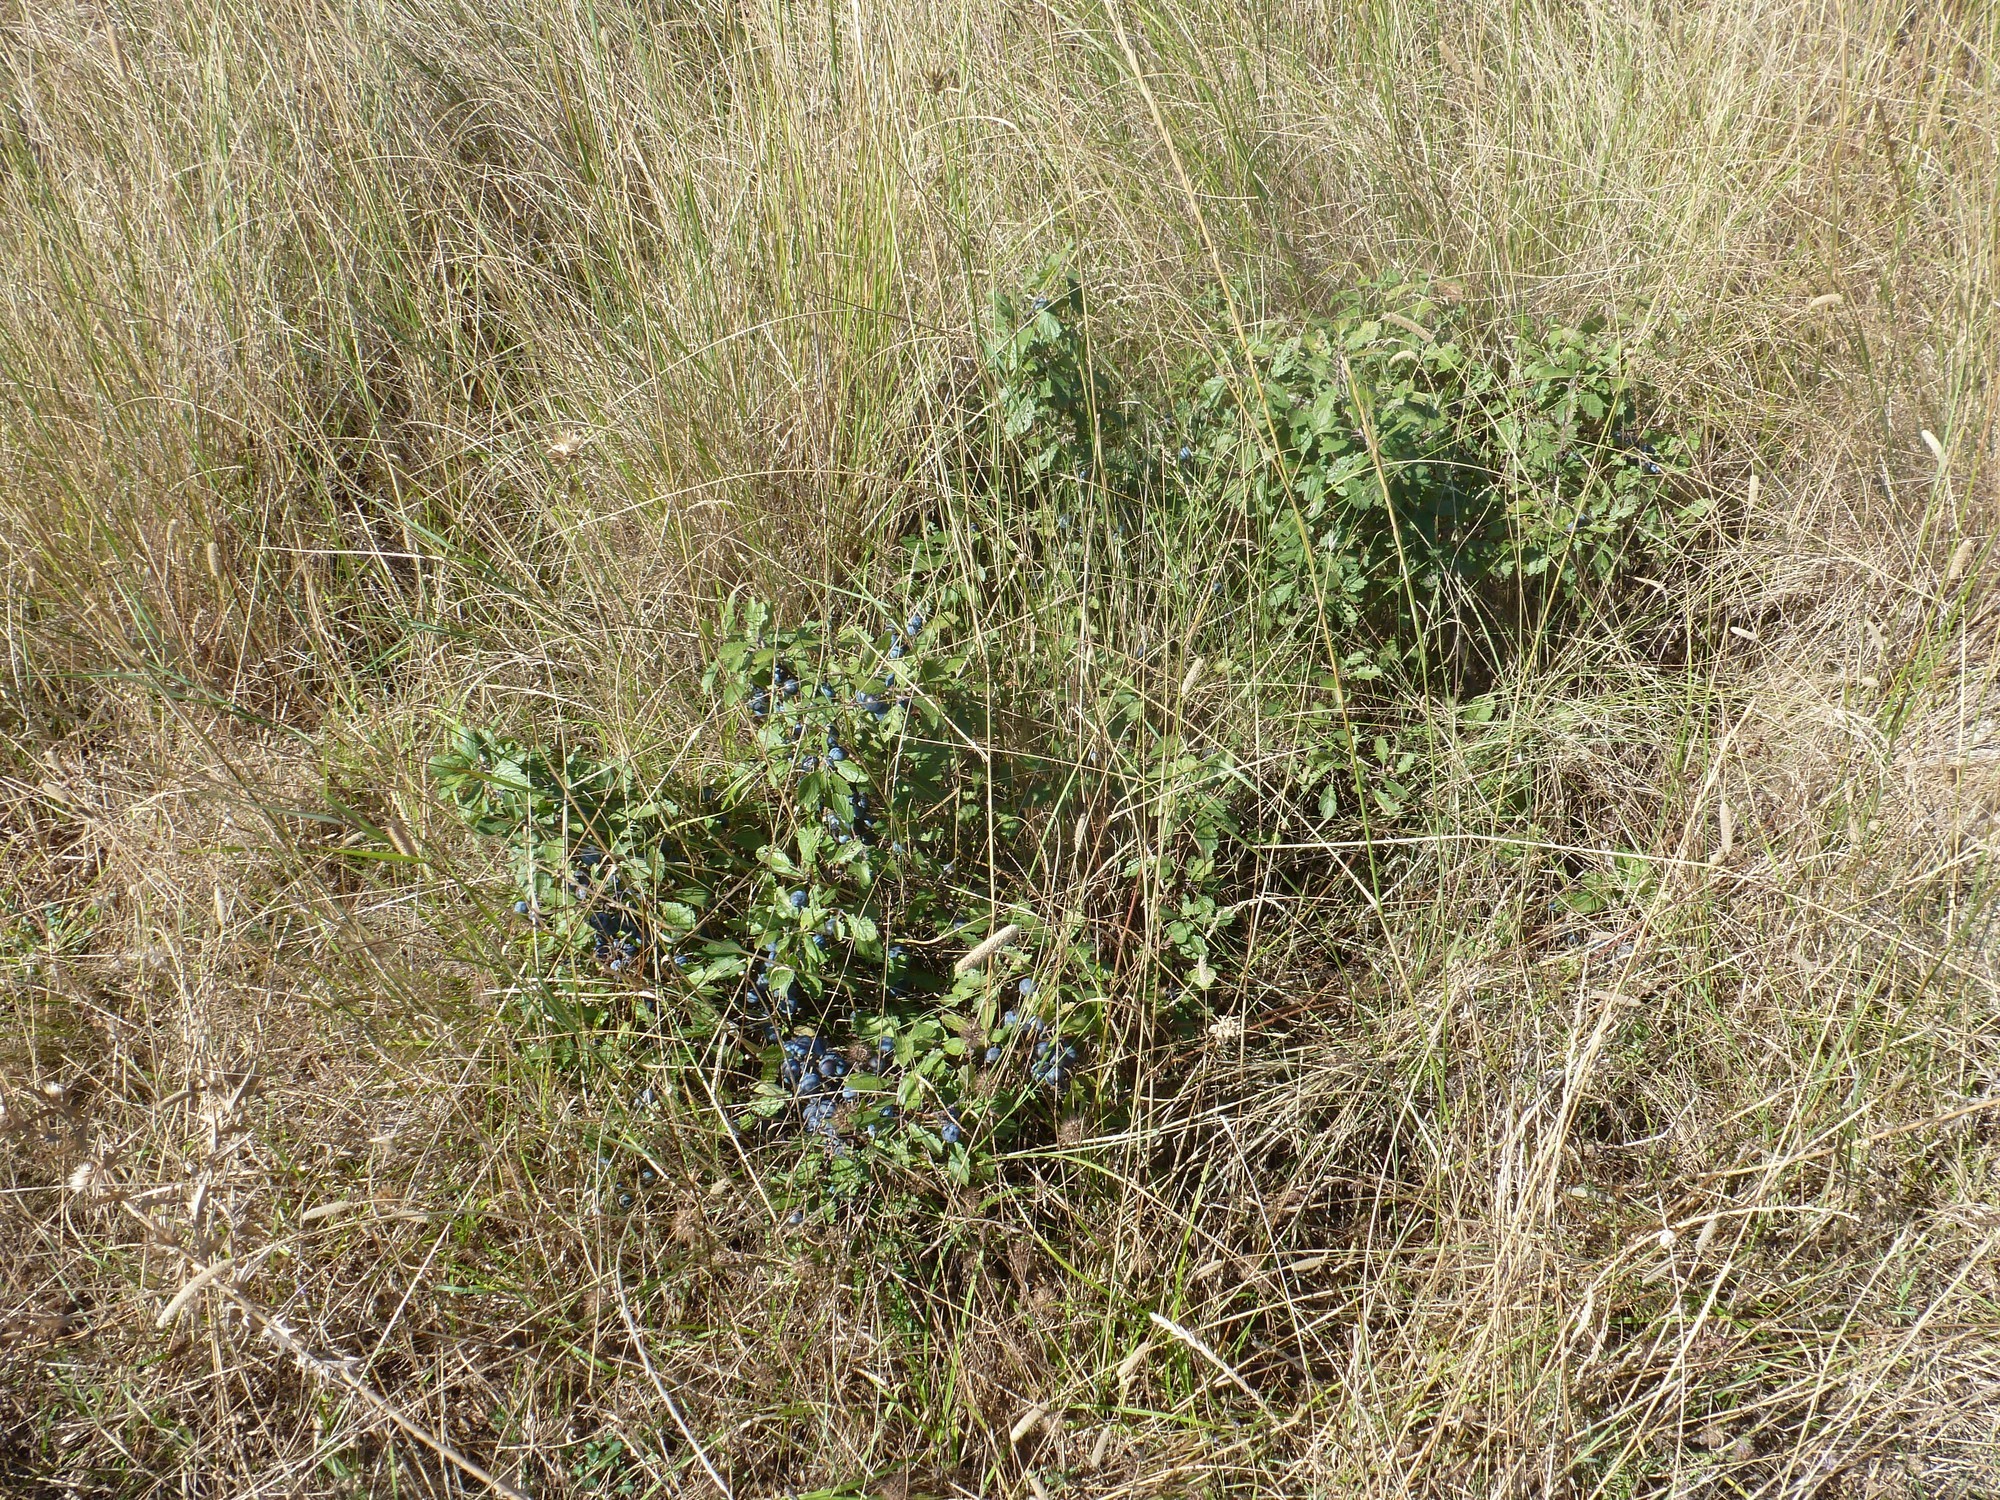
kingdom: Plantae
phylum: Tracheophyta
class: Magnoliopsida
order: Rosales
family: Rosaceae
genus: Prunus
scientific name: Prunus spinosa
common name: Blackthorn
